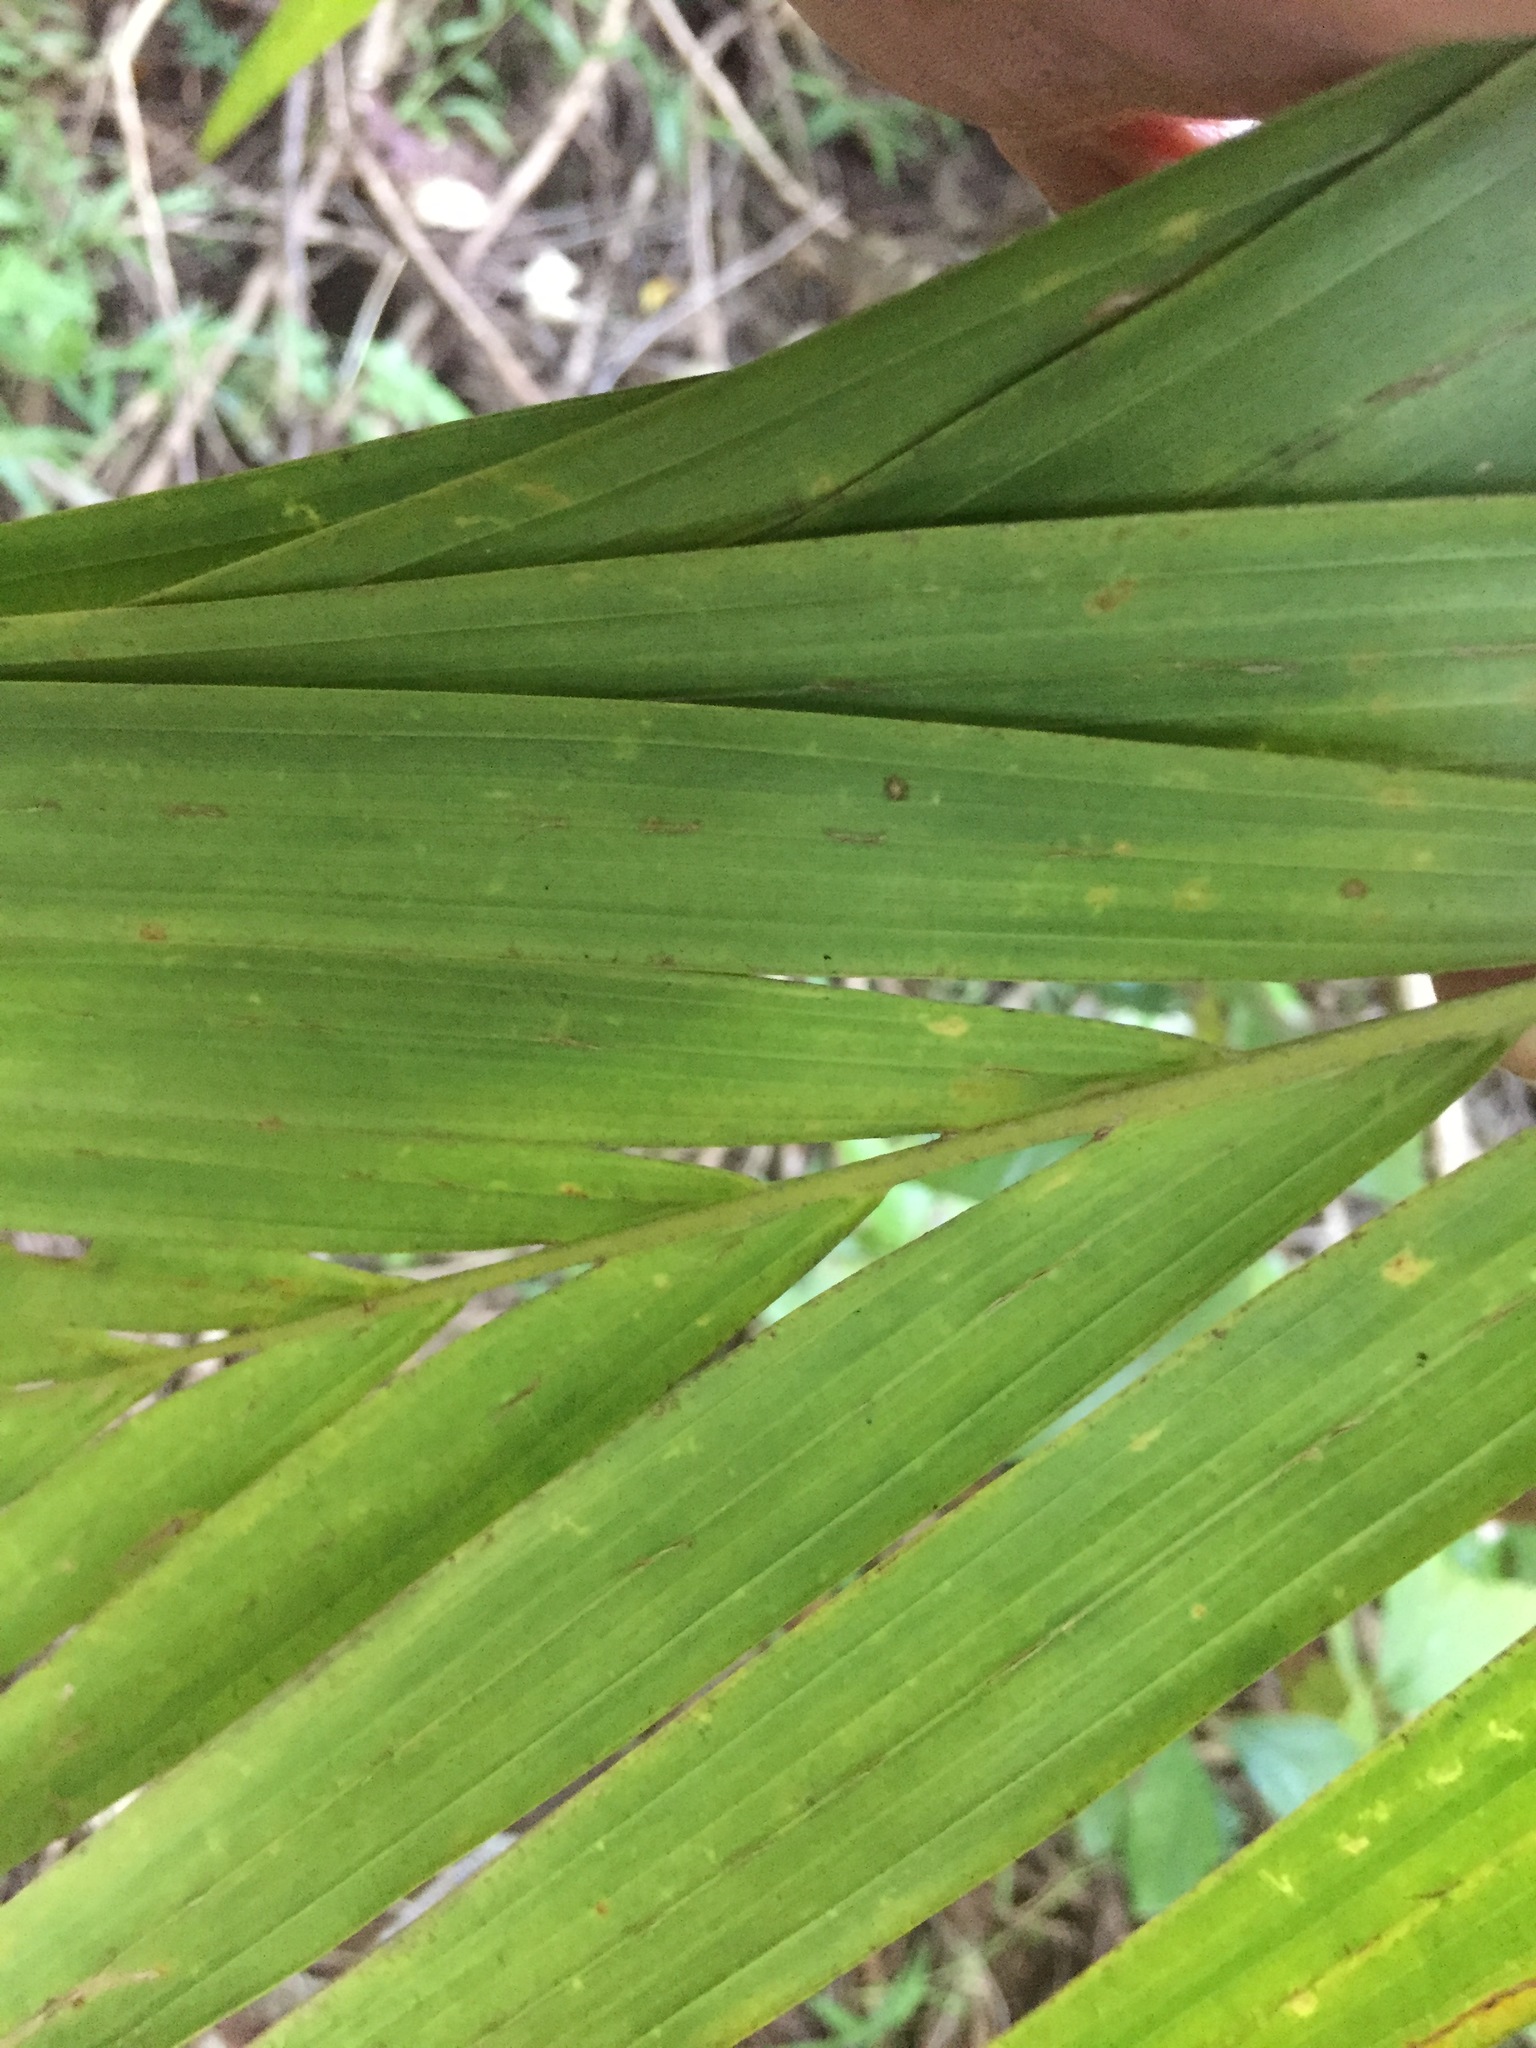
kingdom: Plantae
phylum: Tracheophyta
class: Liliopsida
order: Arecales
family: Arecaceae
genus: Archontophoenix
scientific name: Archontophoenix cunninghamiana
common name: Piccabeen bangalow palm
